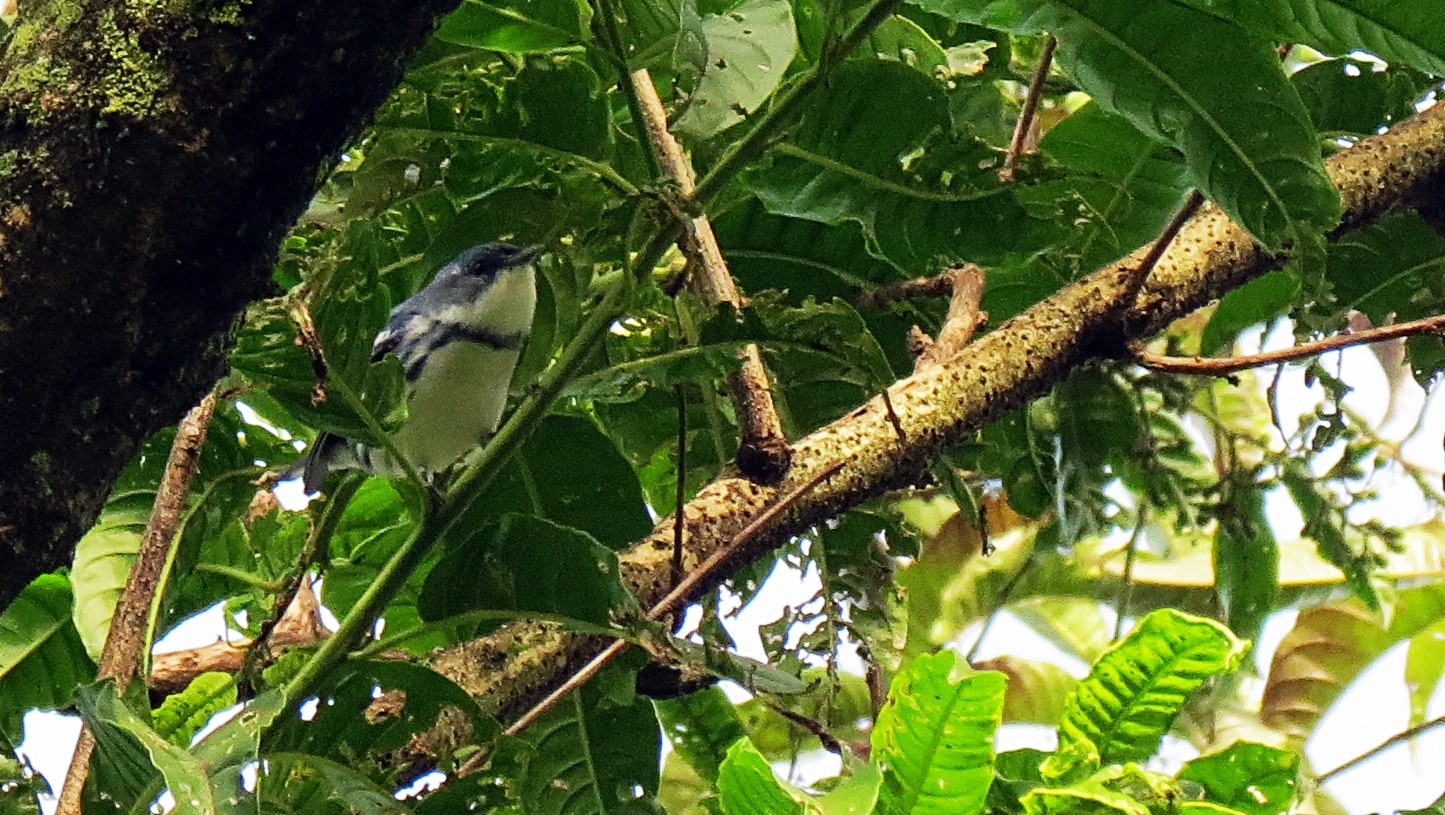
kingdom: Animalia
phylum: Chordata
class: Aves
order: Passeriformes
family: Parulidae
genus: Setophaga
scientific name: Setophaga cerulea
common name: Cerulean warbler
